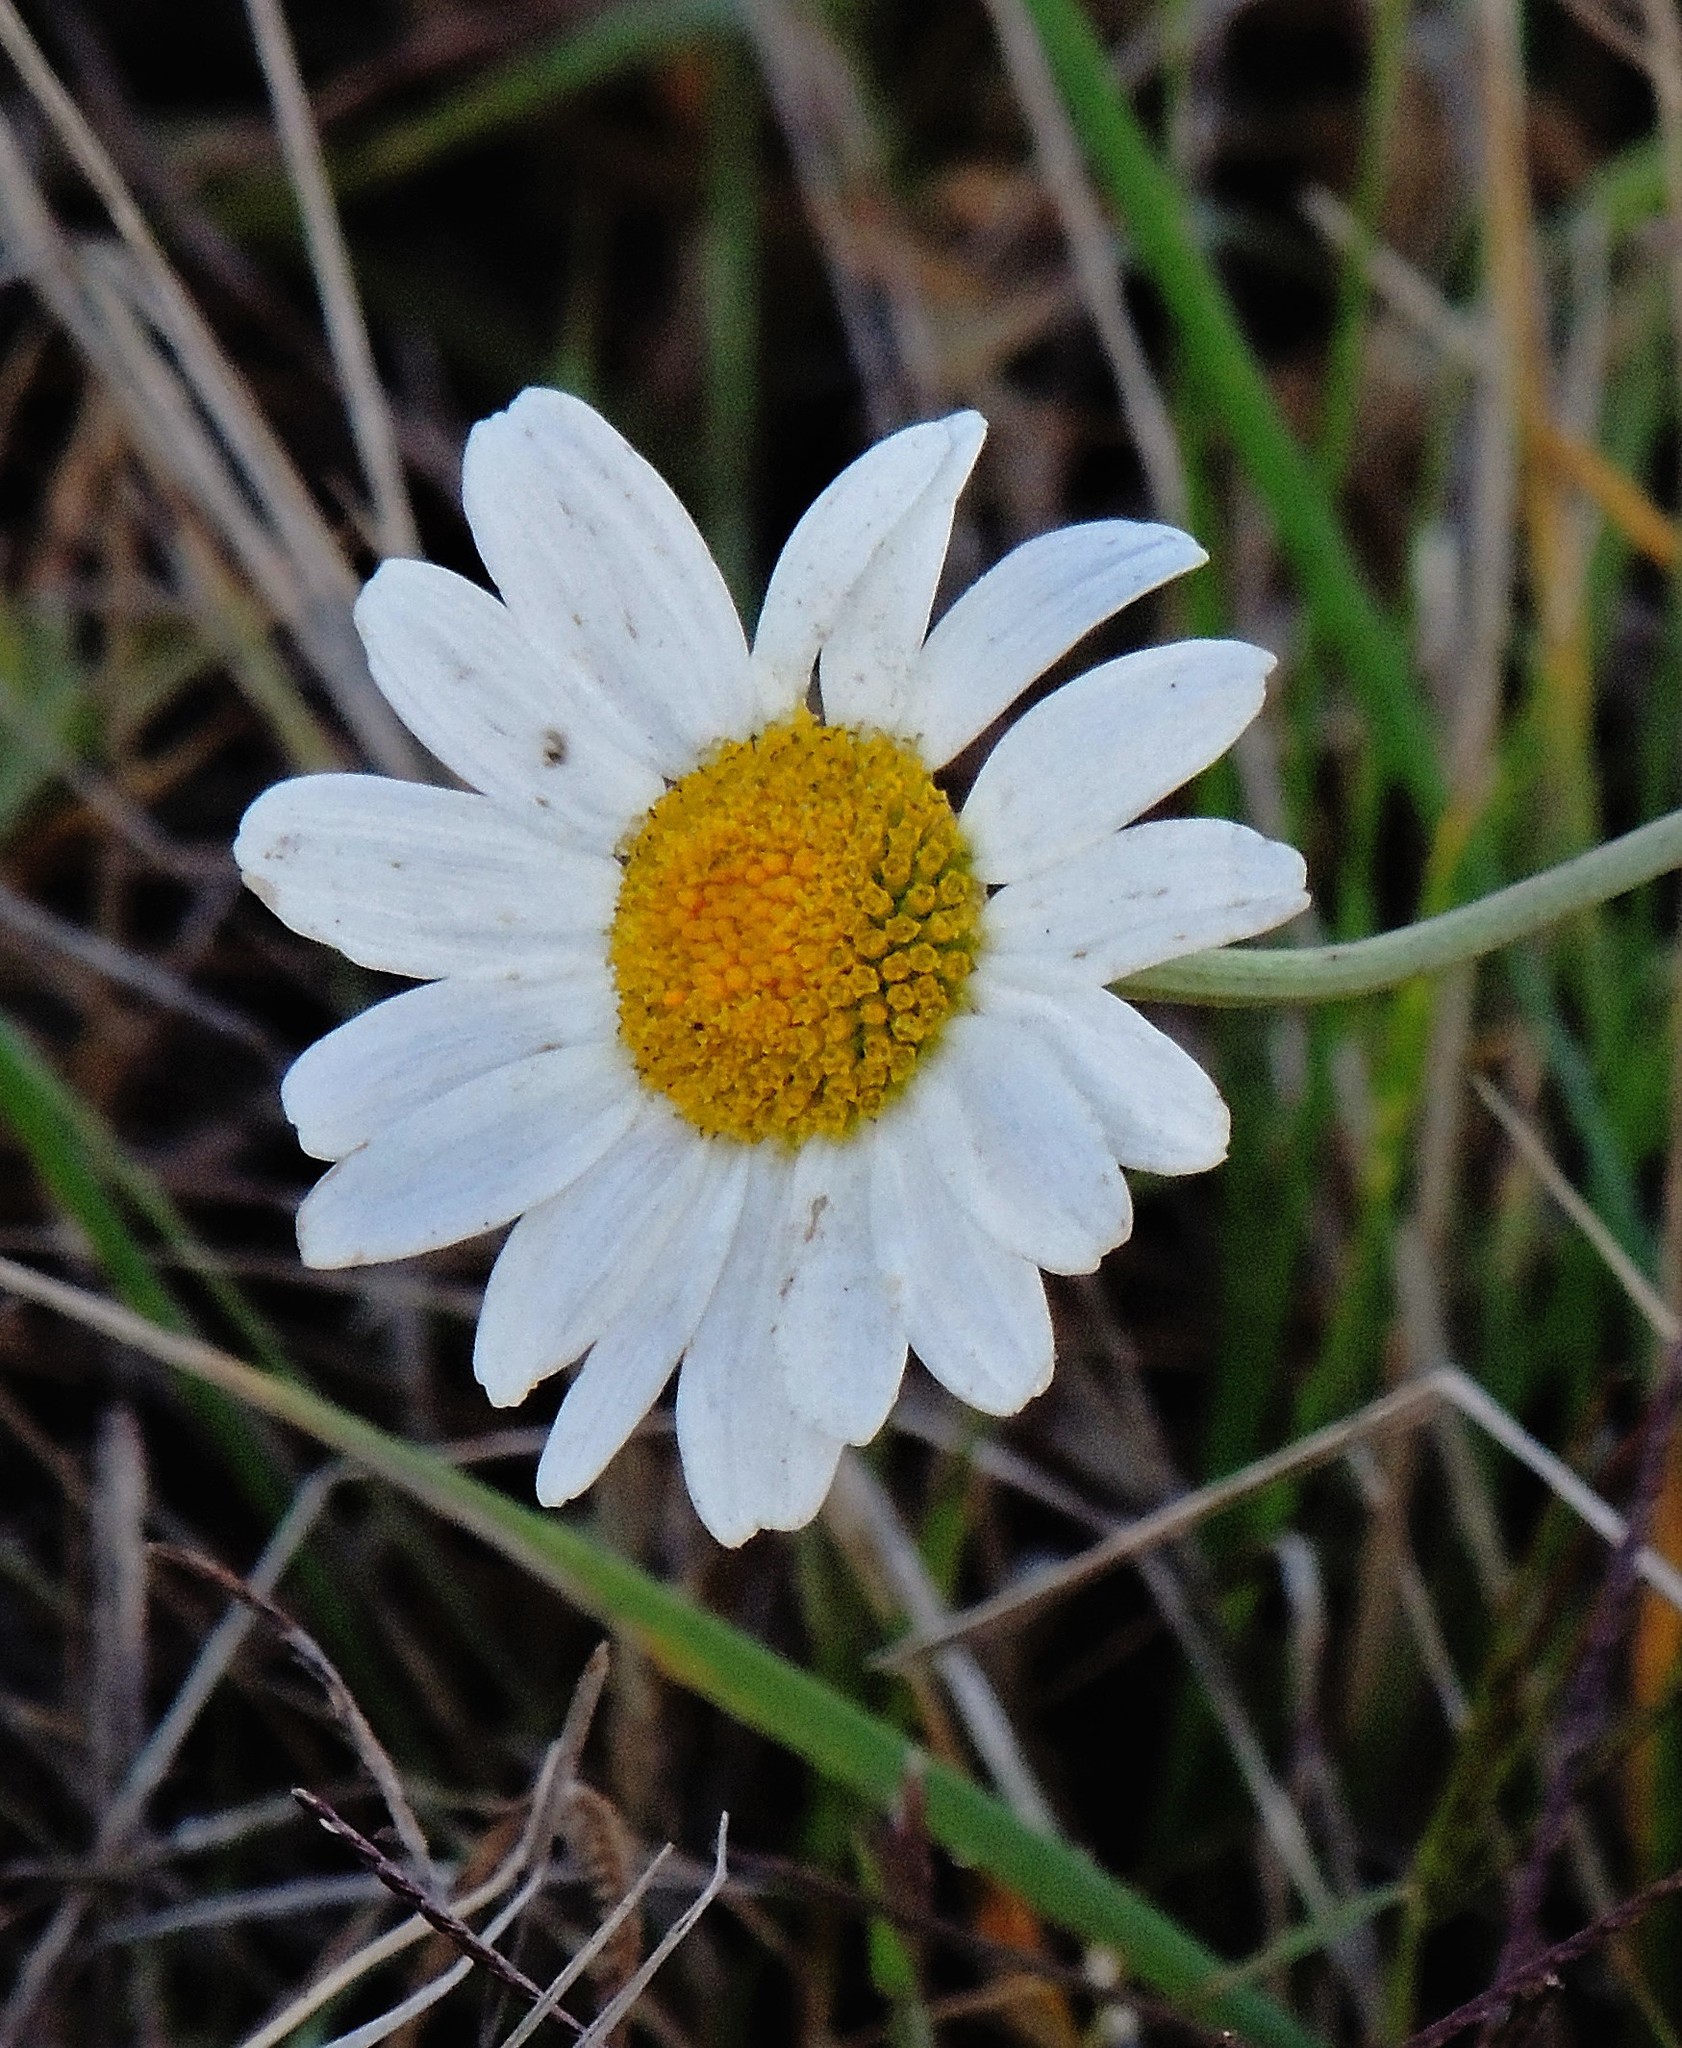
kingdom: Plantae
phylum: Tracheophyta
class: Magnoliopsida
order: Asterales
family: Asteraceae
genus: Leucanthemum
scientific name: Leucanthemum vulgare
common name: Oxeye daisy
